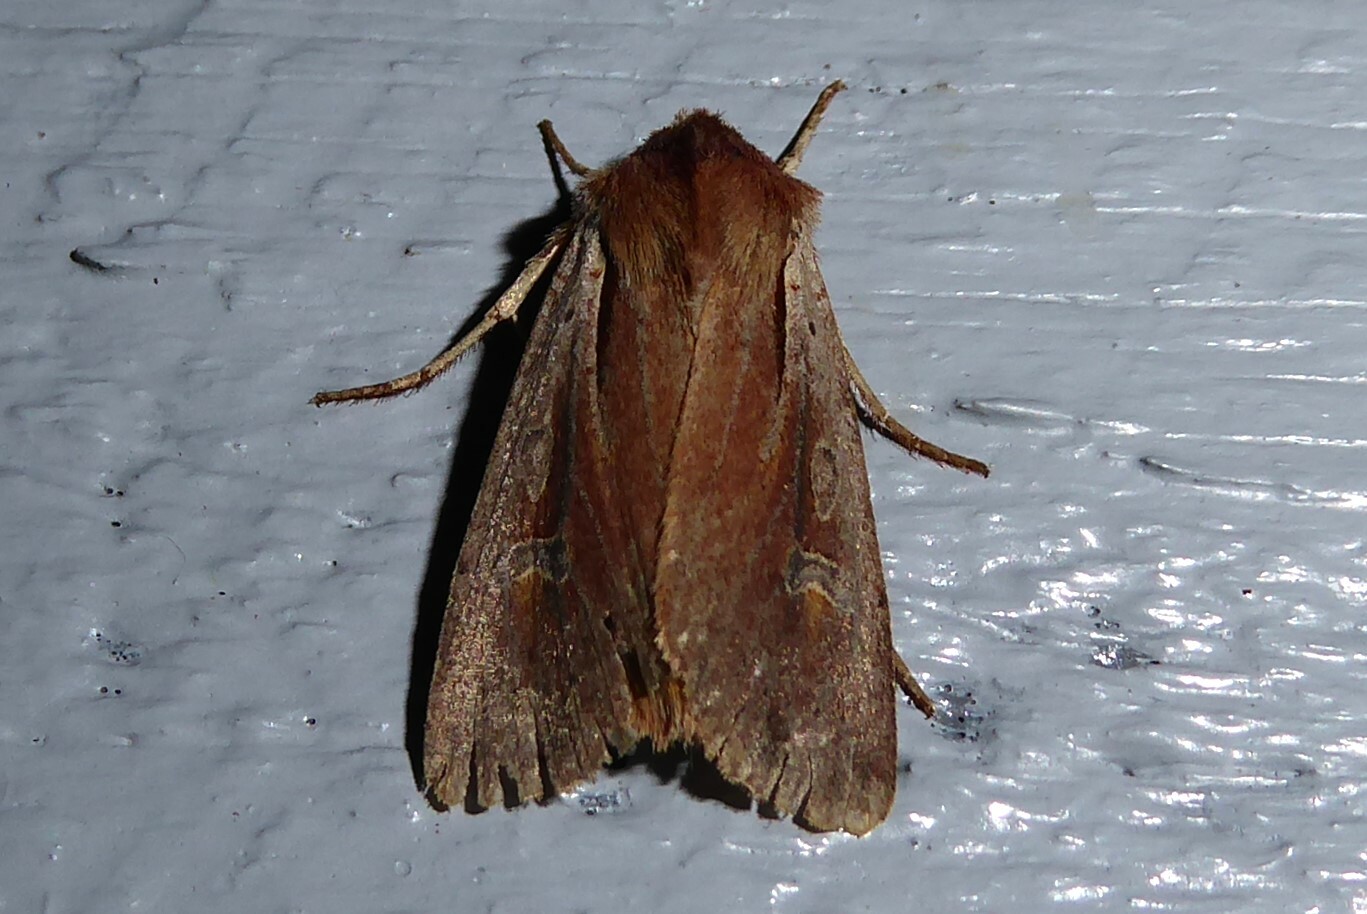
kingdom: Animalia
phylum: Arthropoda
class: Insecta
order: Lepidoptera
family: Noctuidae
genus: Ichneutica
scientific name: Ichneutica atristriga
